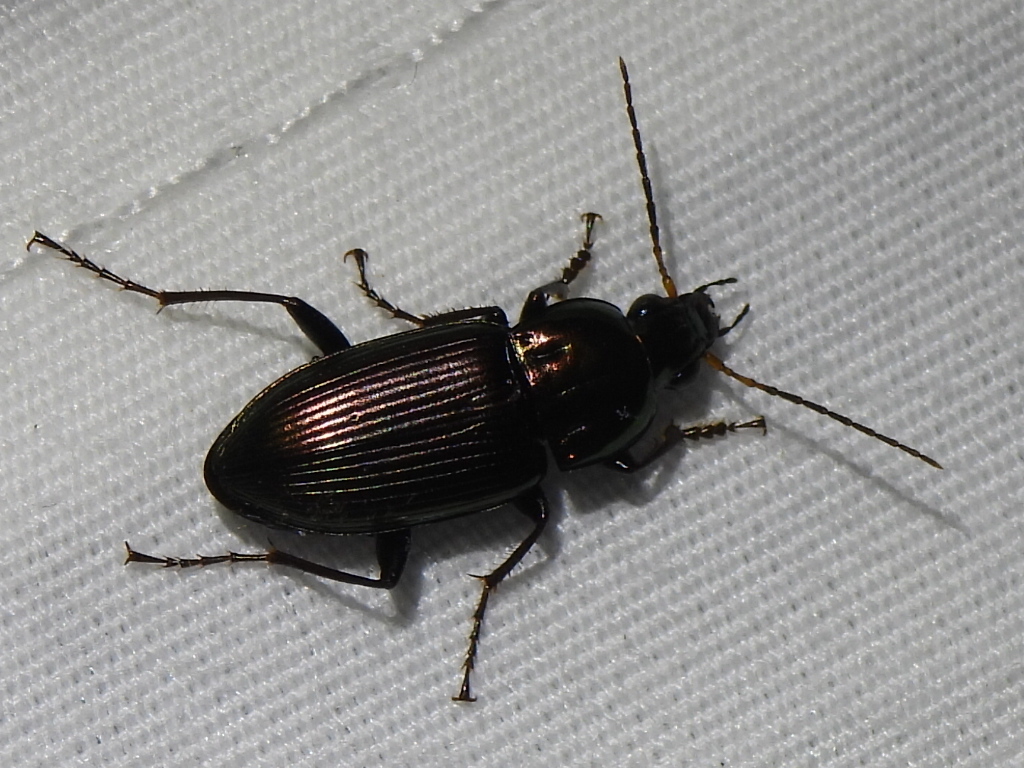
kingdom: Animalia
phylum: Arthropoda
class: Insecta
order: Coleoptera
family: Carabidae
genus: Poecilus
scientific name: Poecilus chalcites
